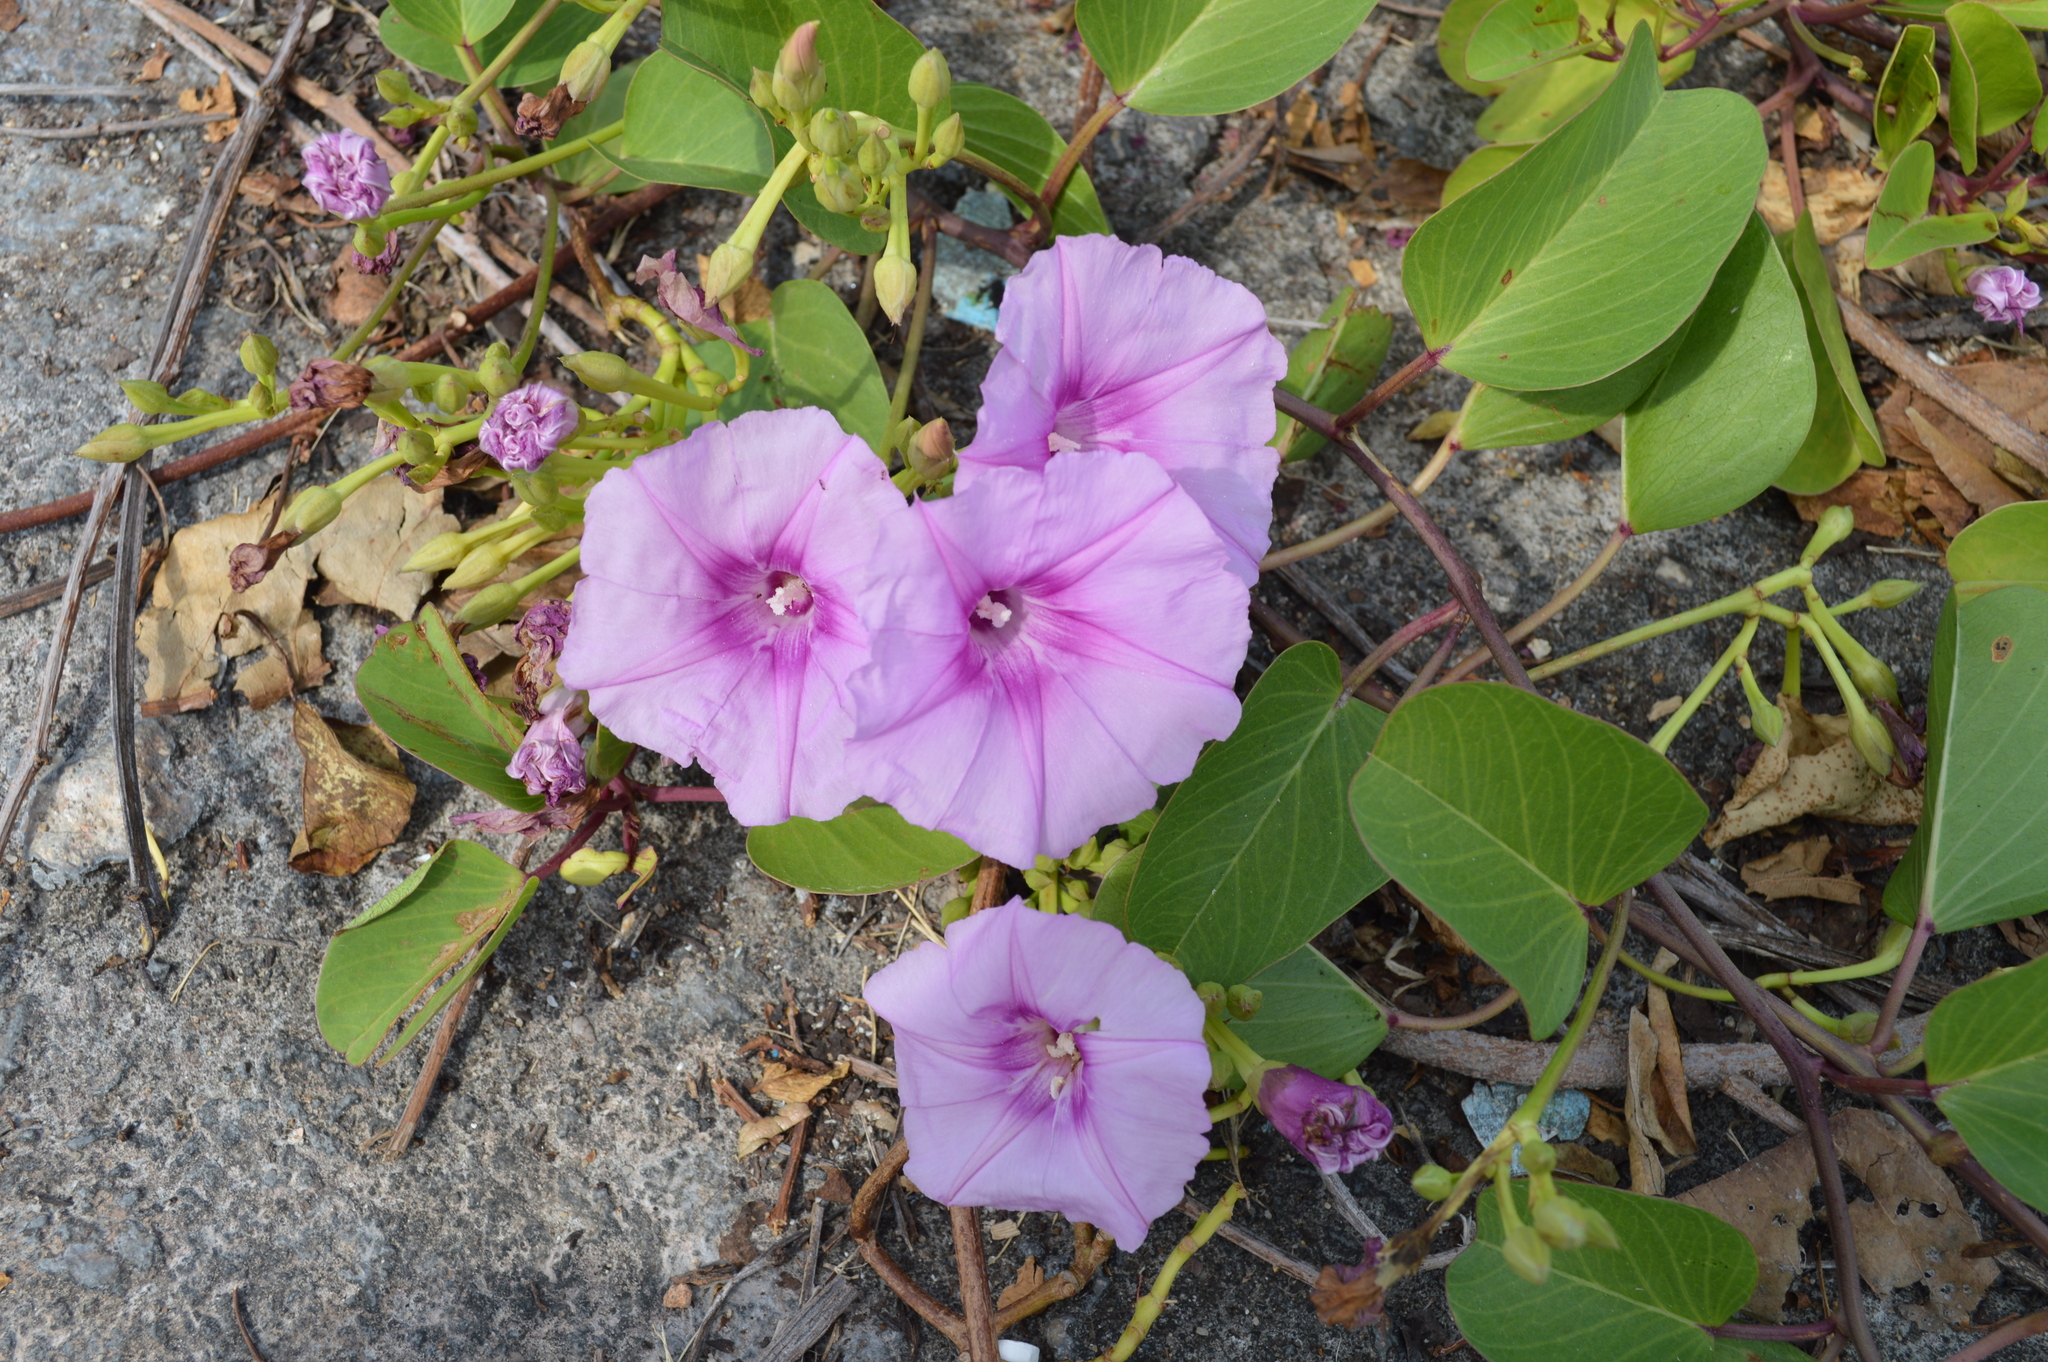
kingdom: Plantae
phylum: Tracheophyta
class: Magnoliopsida
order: Solanales
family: Convolvulaceae
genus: Ipomoea
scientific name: Ipomoea pes-caprae
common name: Beach morning glory
